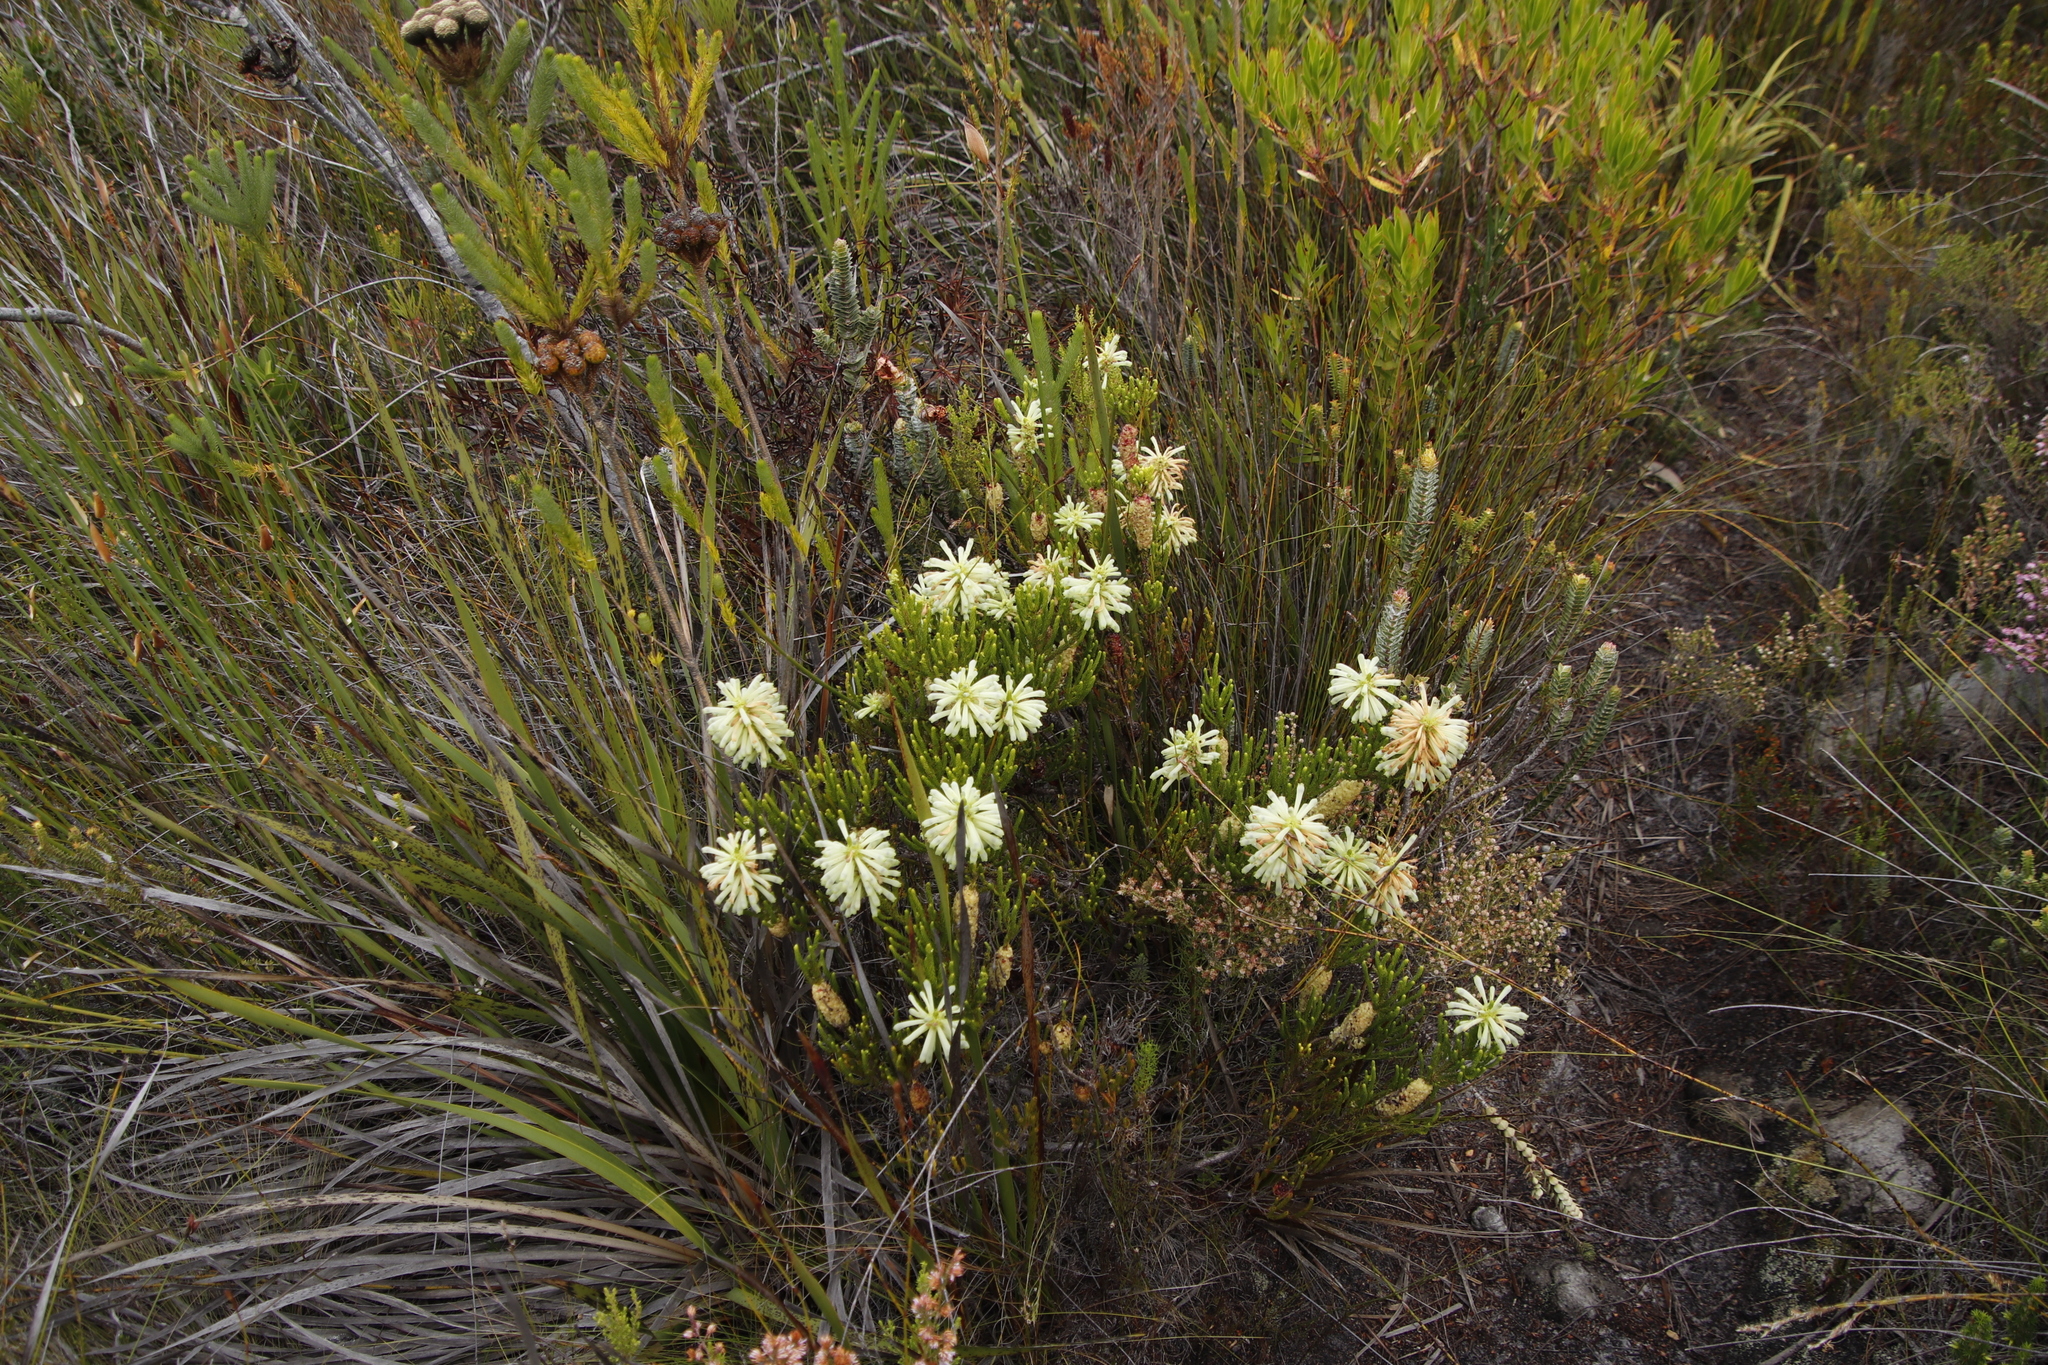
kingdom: Plantae
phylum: Tracheophyta
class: Magnoliopsida
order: Ericales
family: Ericaceae
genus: Erica
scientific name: Erica sessiliflora
